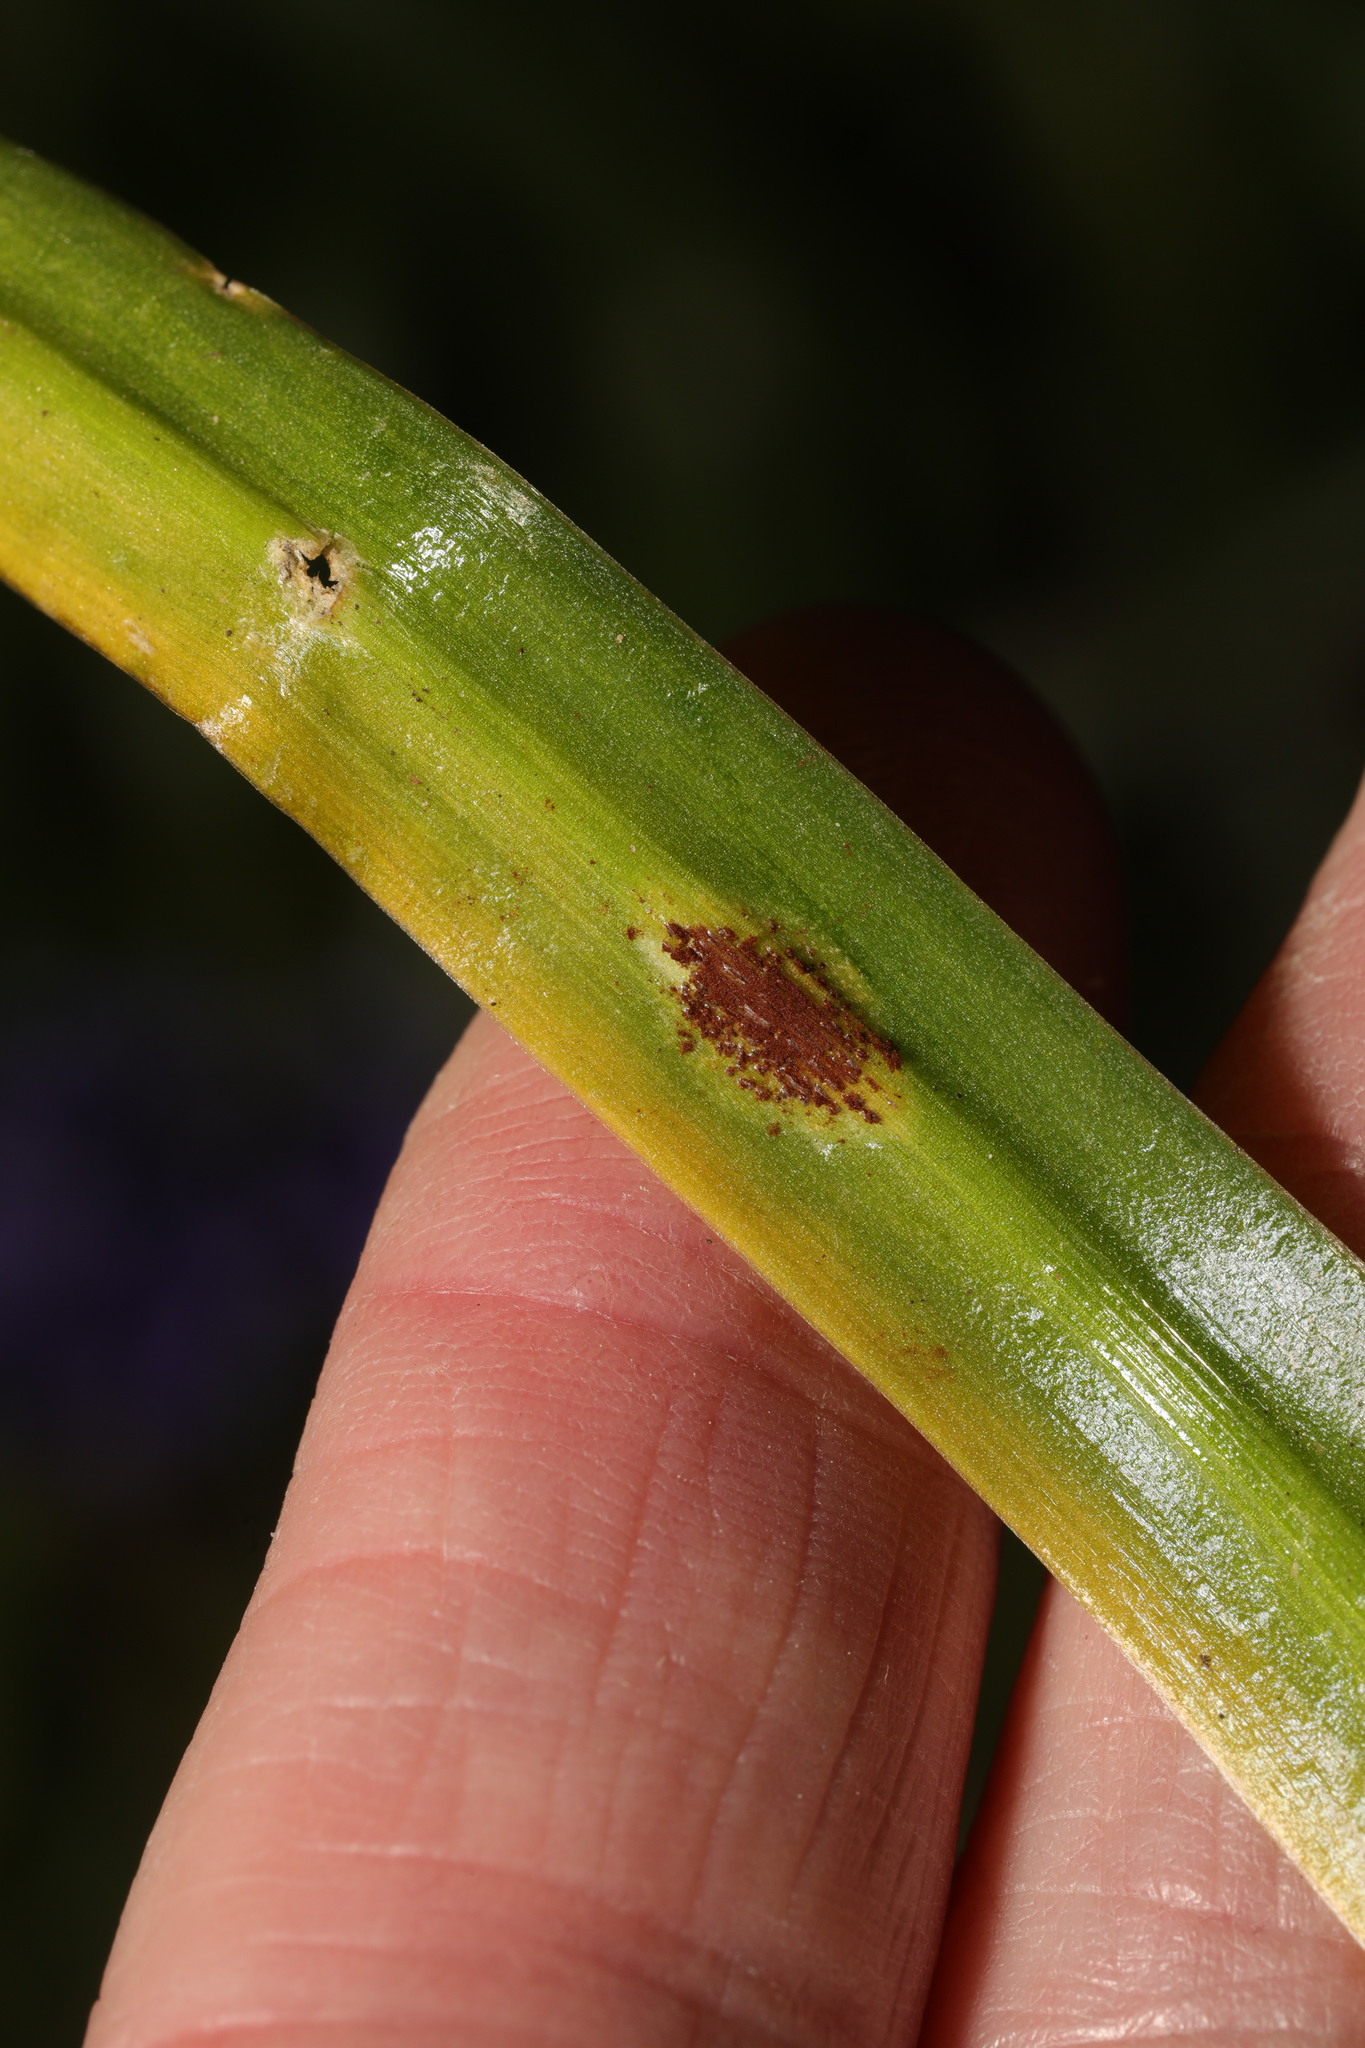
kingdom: Fungi
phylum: Basidiomycota
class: Pucciniomycetes
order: Pucciniales
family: Pucciniaceae
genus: Uromyces
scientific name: Uromyces hyacinthi
